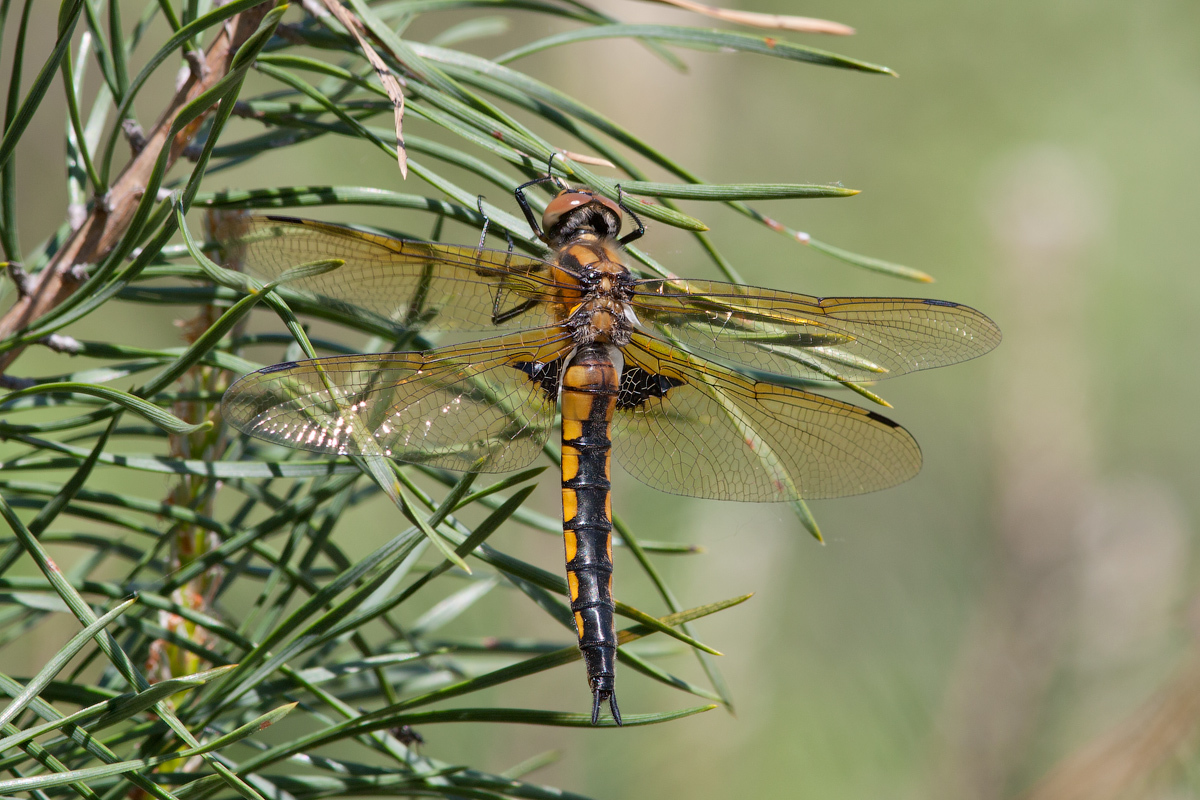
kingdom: Animalia
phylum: Arthropoda
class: Insecta
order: Odonata
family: Corduliidae
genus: Epitheca
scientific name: Epitheca bimaculata
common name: Eurasian baskettail
